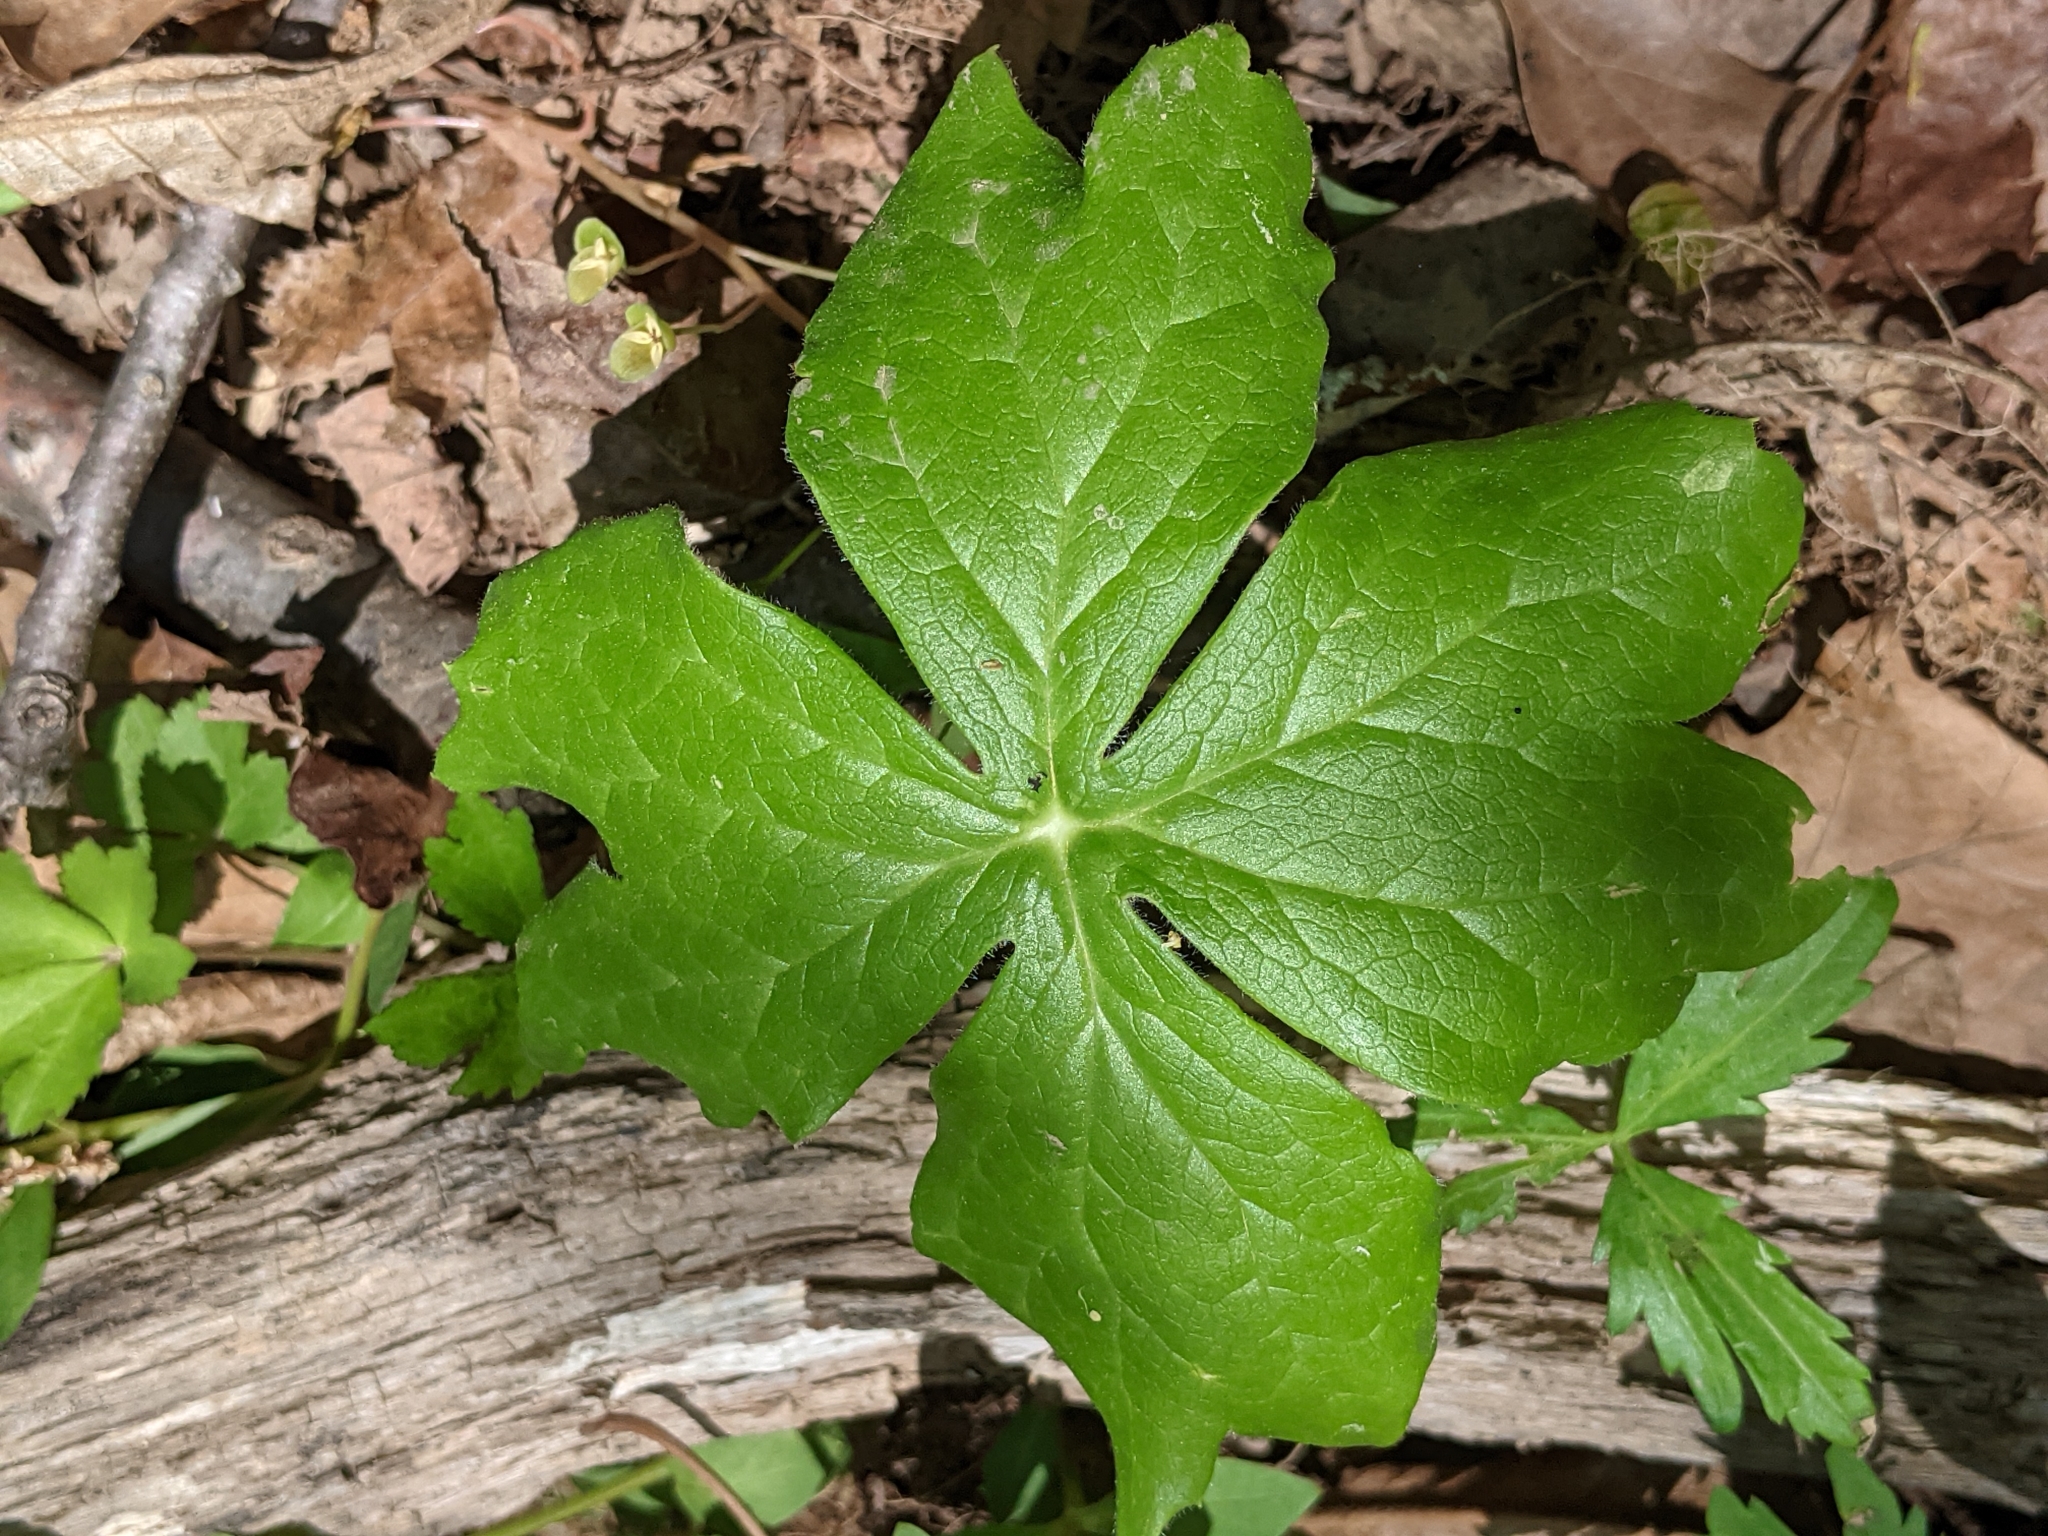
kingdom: Plantae
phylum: Tracheophyta
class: Magnoliopsida
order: Ranunculales
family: Berberidaceae
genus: Podophyllum
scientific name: Podophyllum peltatum
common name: Wild mandrake
